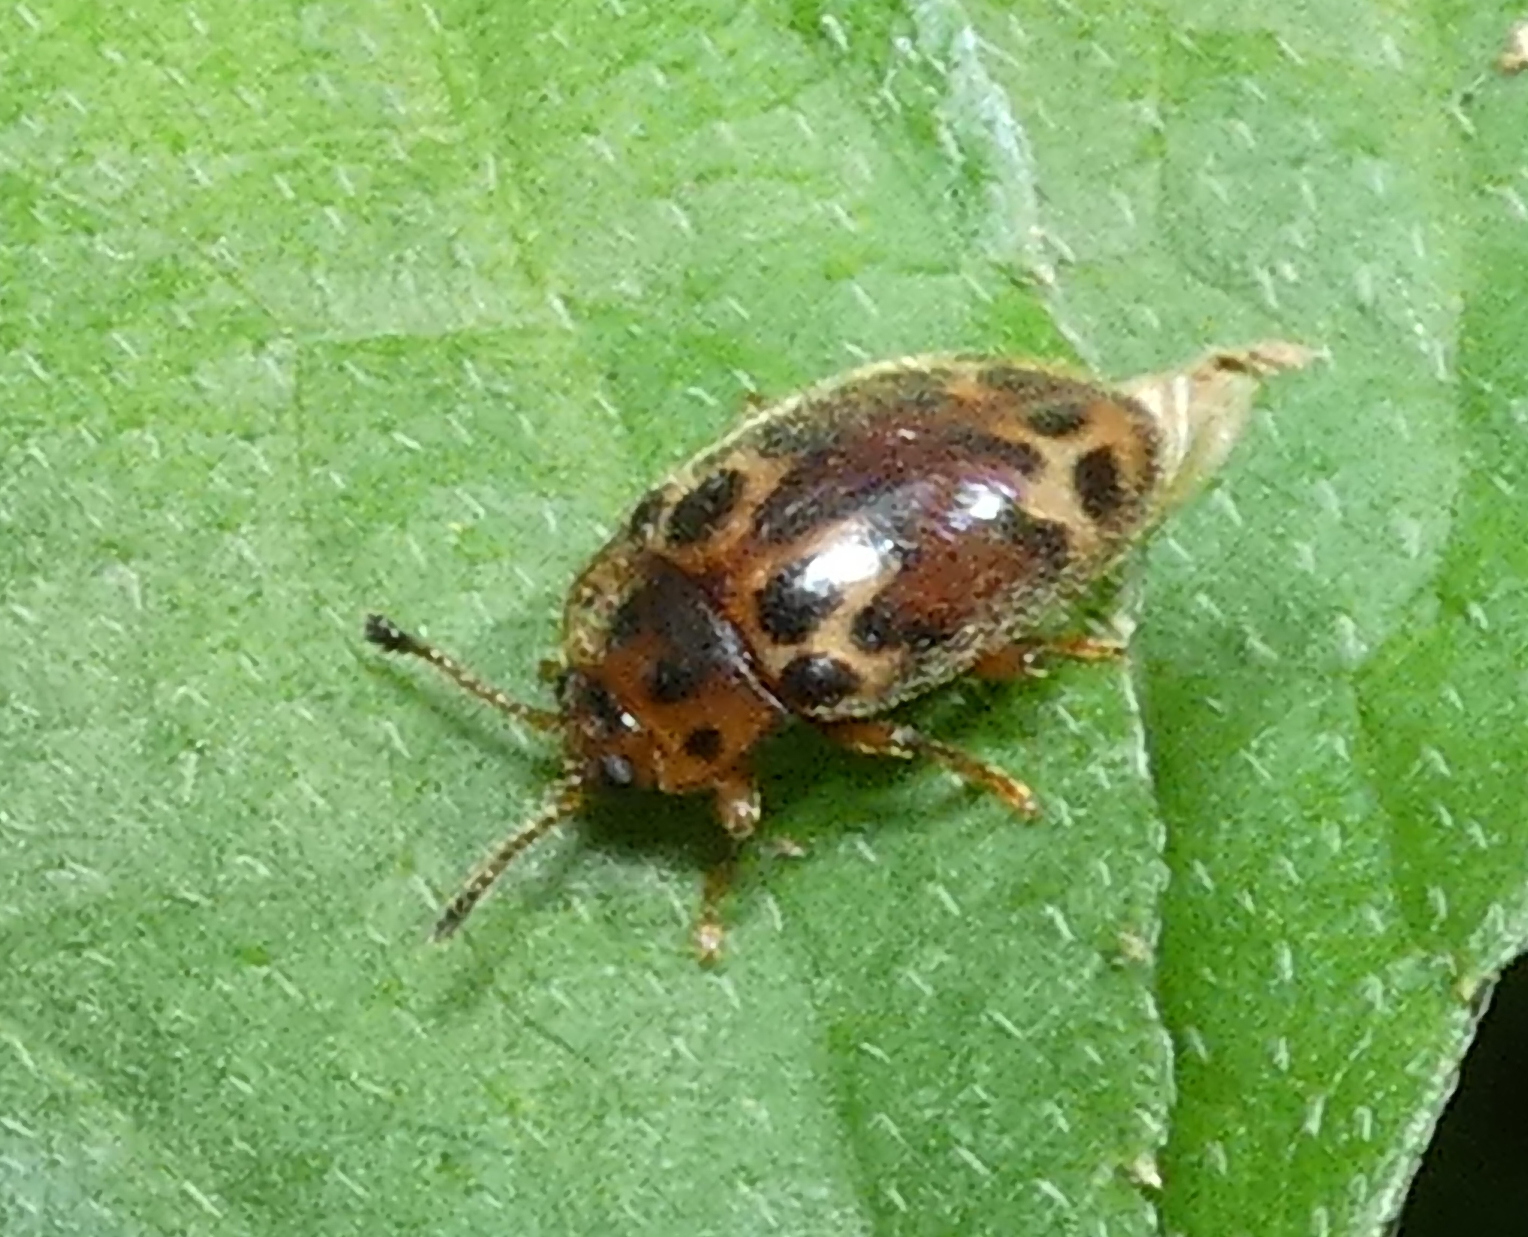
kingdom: Animalia
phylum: Arthropoda
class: Insecta
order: Coleoptera
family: Endomychidae
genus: Epopterus
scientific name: Epopterus ocellatus
